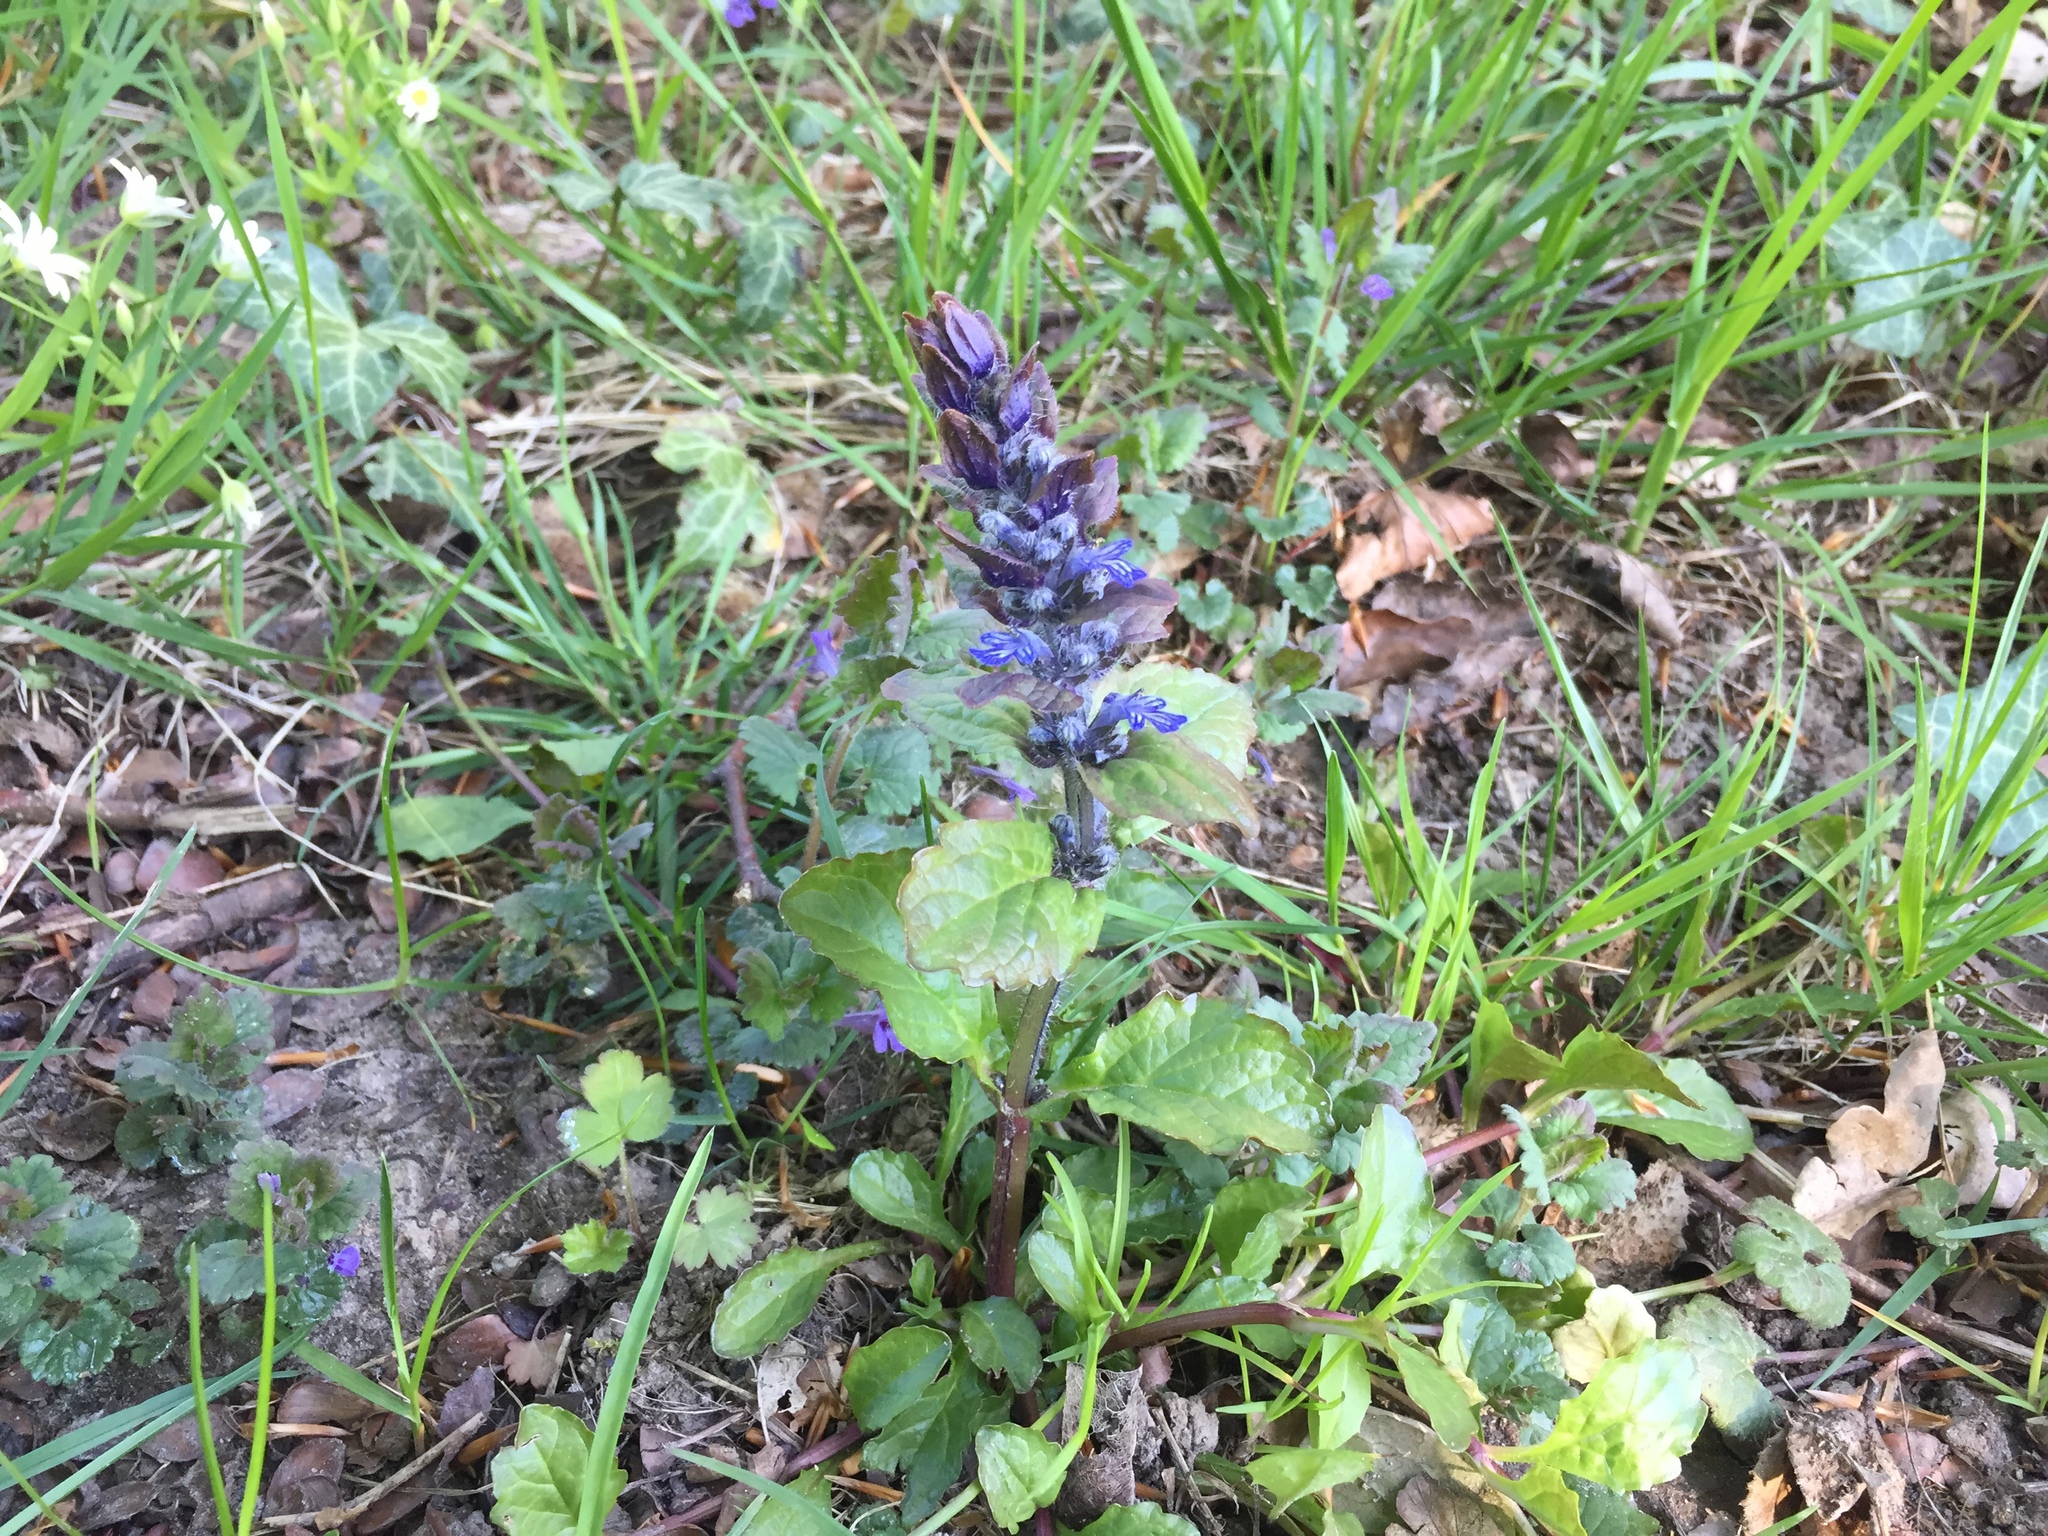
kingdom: Plantae
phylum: Tracheophyta
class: Magnoliopsida
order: Lamiales
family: Lamiaceae
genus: Ajuga
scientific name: Ajuga reptans
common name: Bugle
